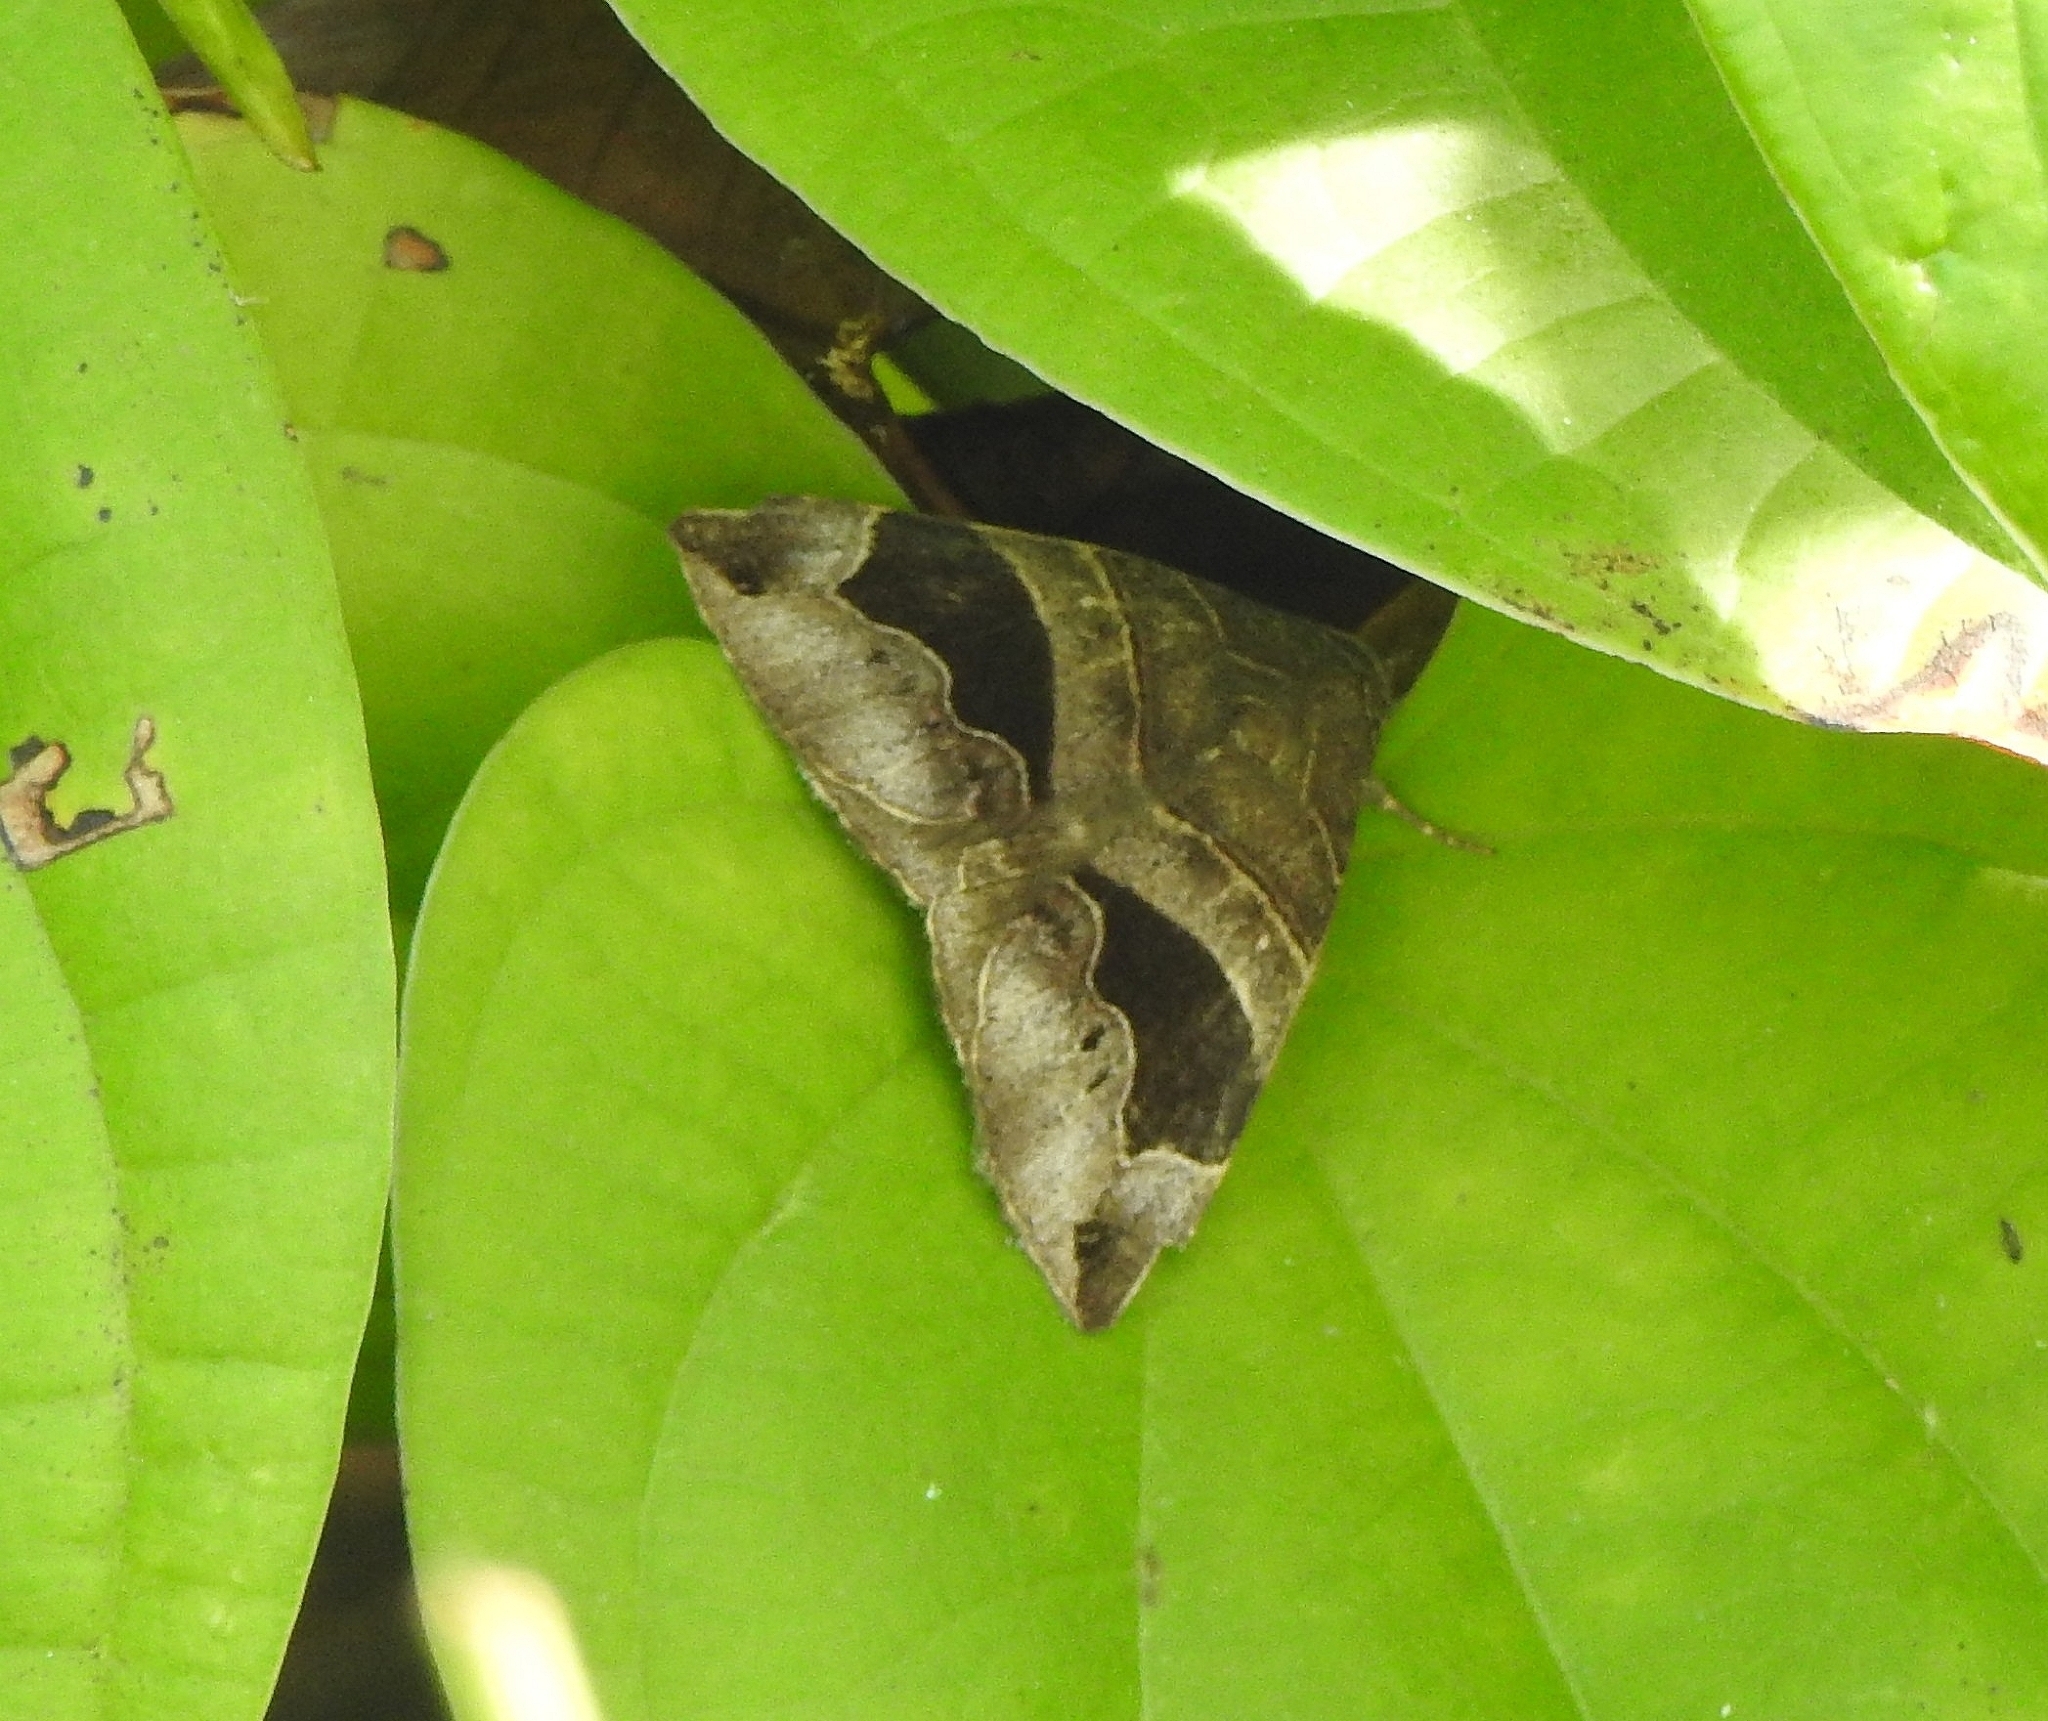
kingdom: Animalia
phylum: Arthropoda
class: Insecta
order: Lepidoptera
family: Erebidae
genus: Bastilla
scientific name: Bastilla joviana
